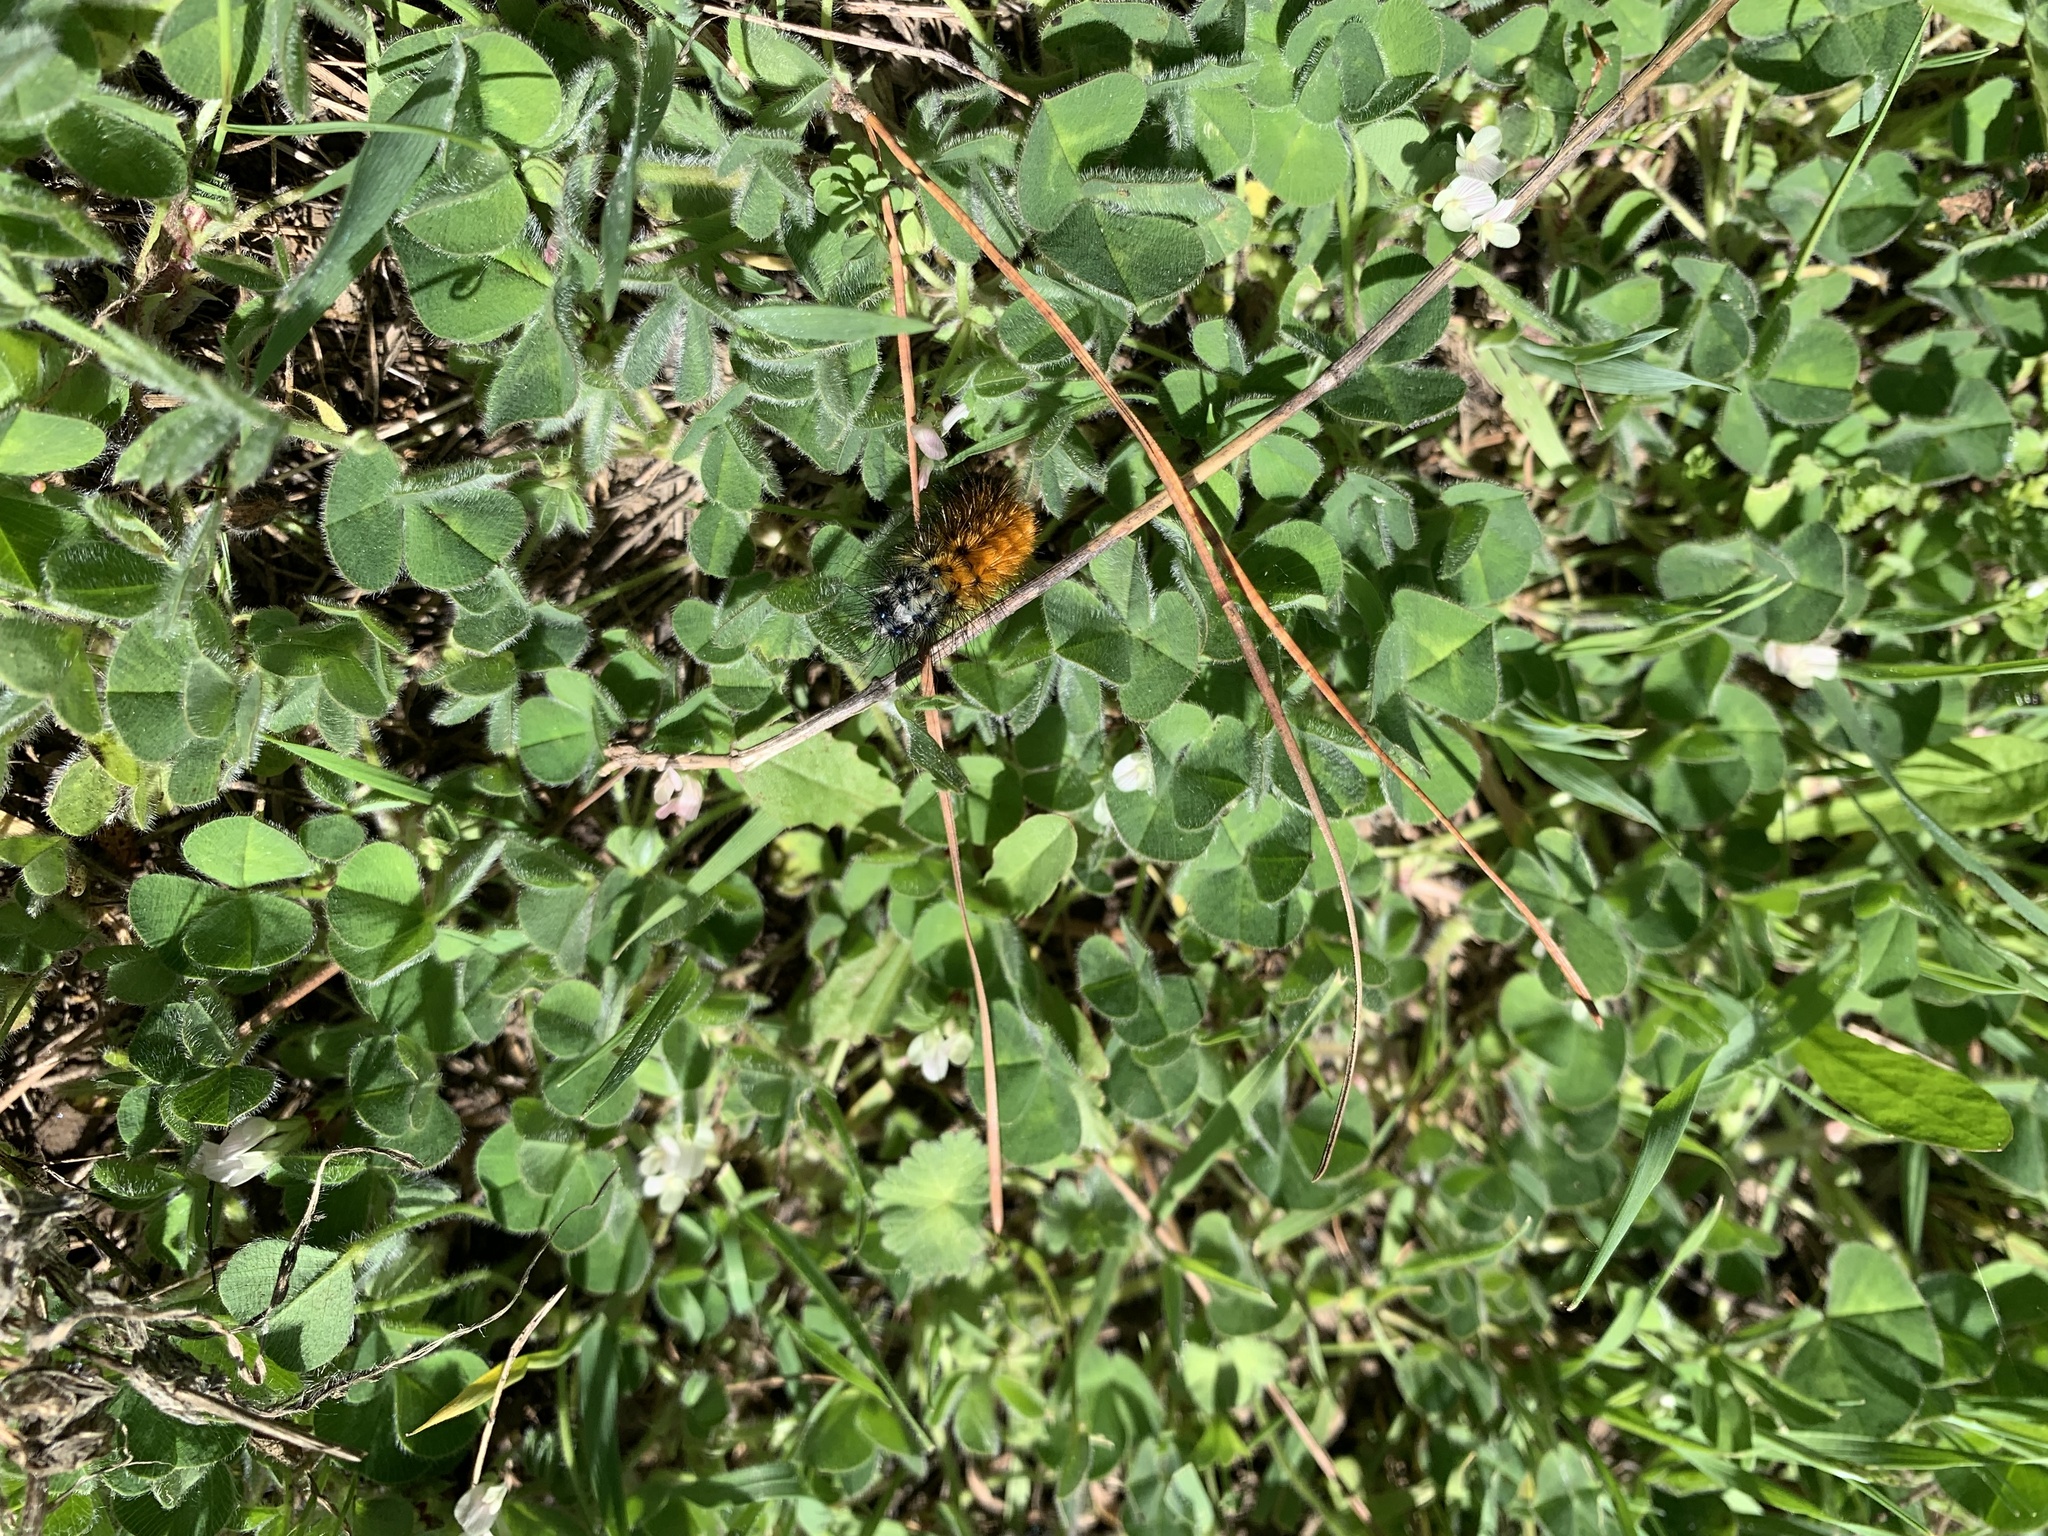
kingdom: Animalia
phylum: Arthropoda
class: Insecta
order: Lepidoptera
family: Erebidae
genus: Chilesia
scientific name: Chilesia
